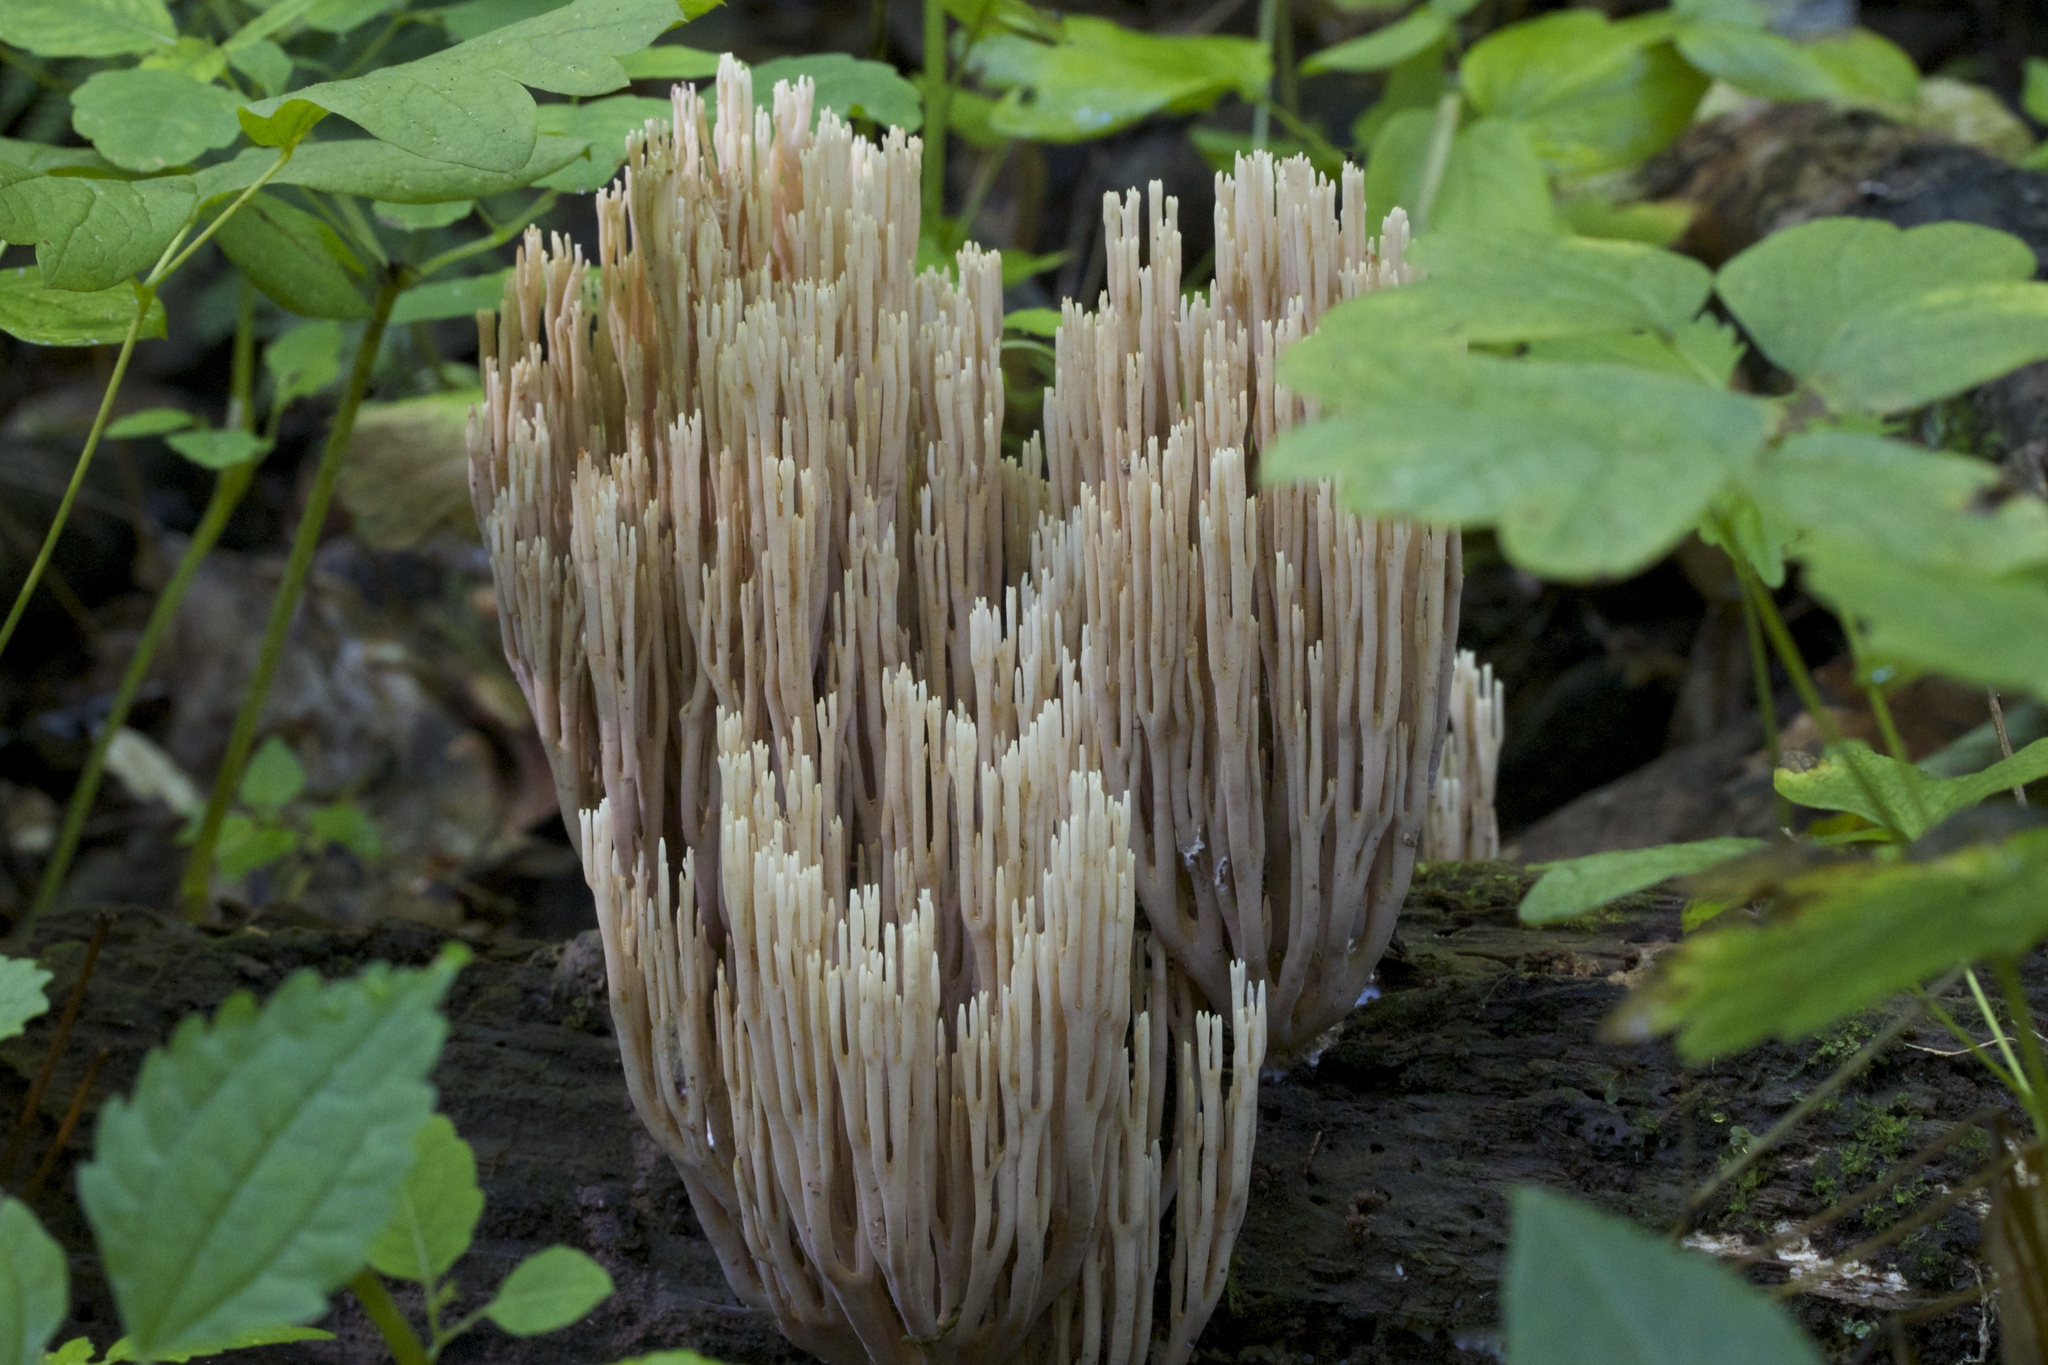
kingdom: Fungi
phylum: Basidiomycota
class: Agaricomycetes
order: Gomphales
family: Gomphaceae
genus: Ramaria
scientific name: Ramaria stricta
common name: Upright coral
